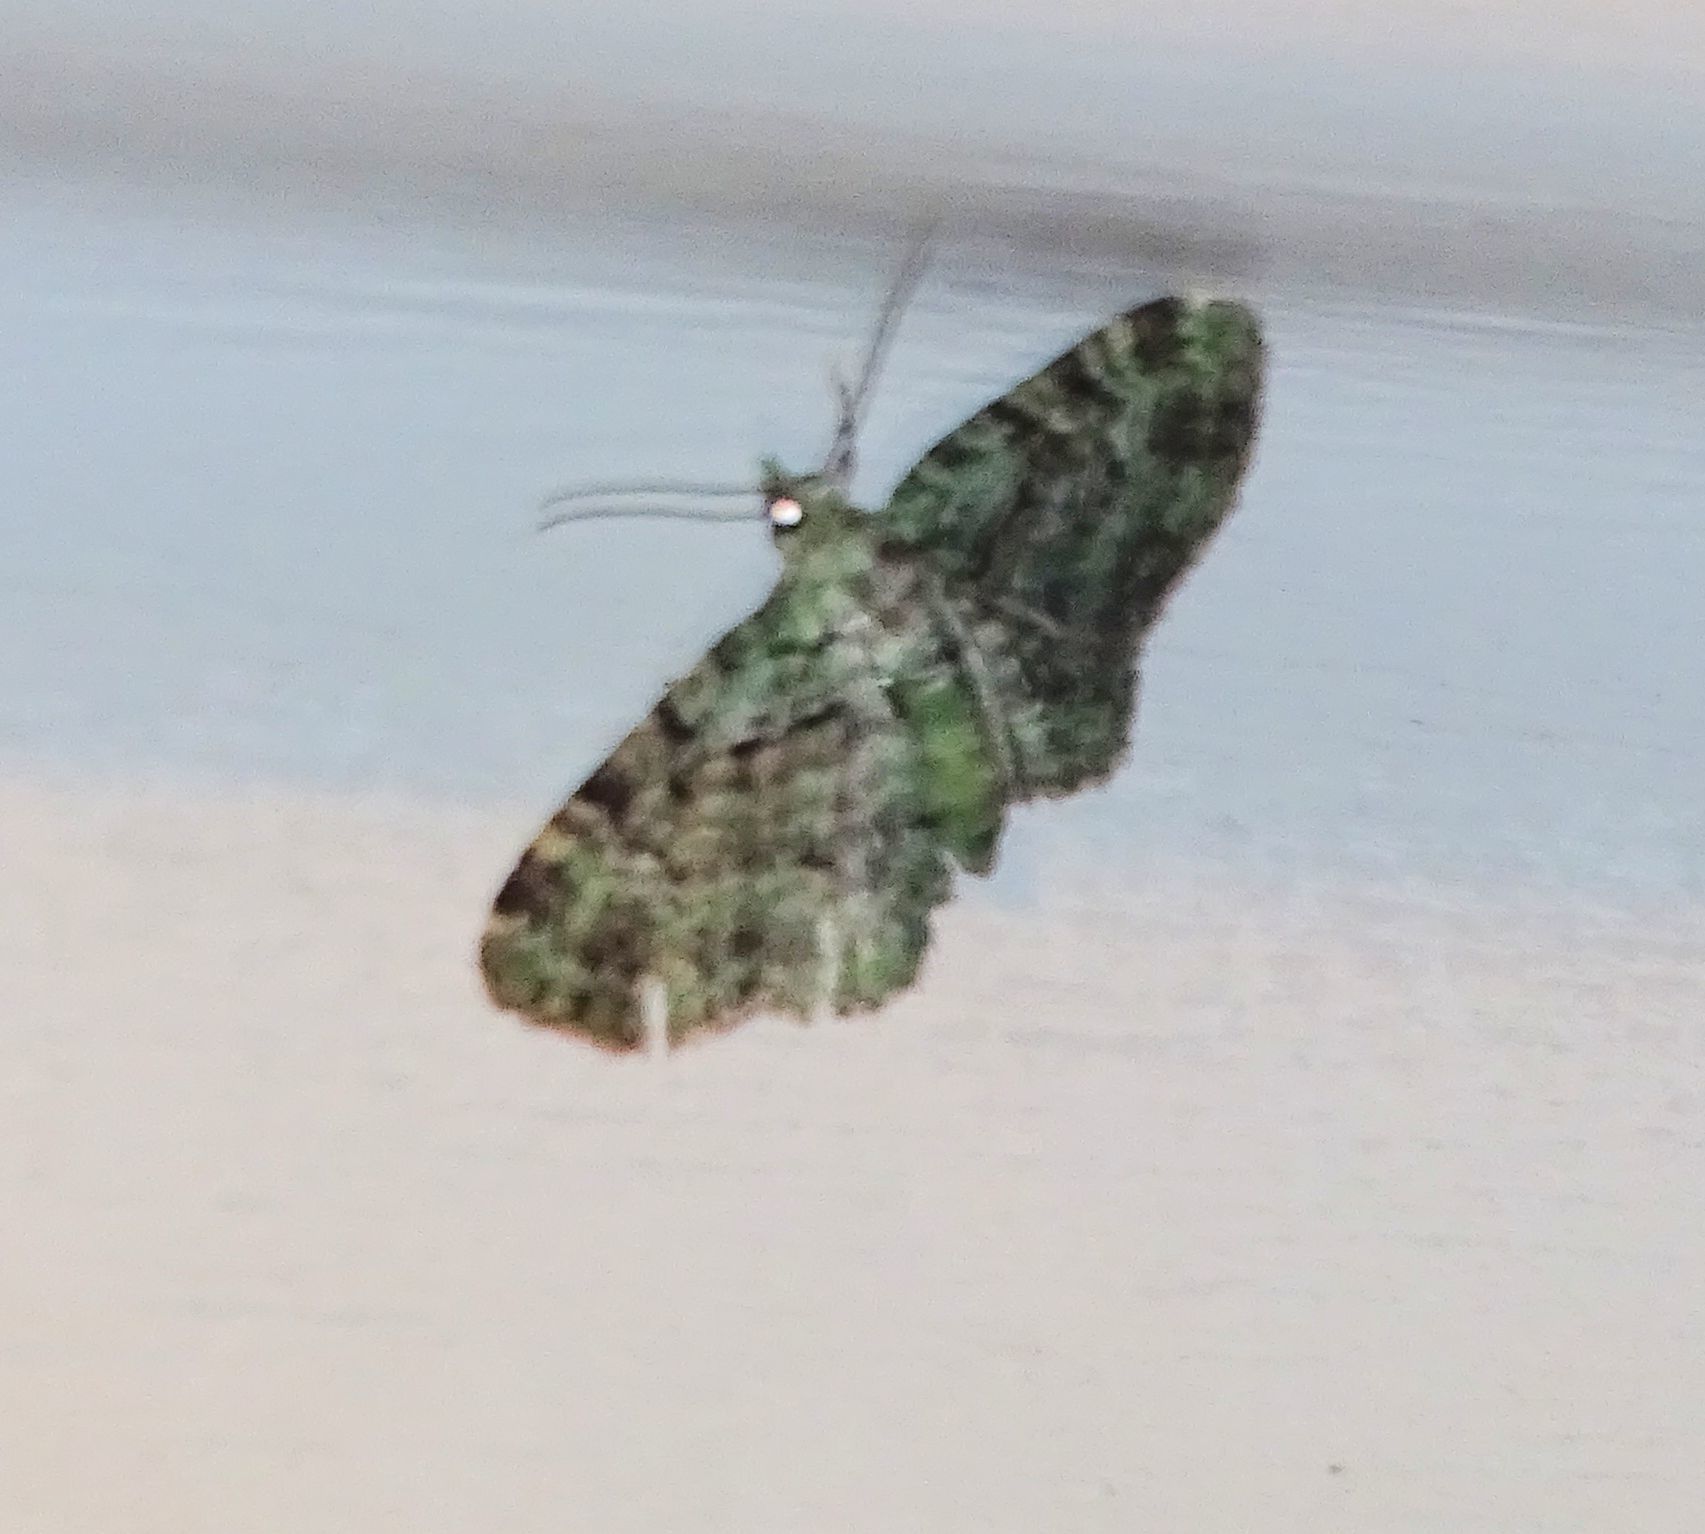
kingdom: Animalia
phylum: Arthropoda
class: Insecta
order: Lepidoptera
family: Geometridae
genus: Pasiphila
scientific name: Pasiphila rectangulata
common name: Green pug
